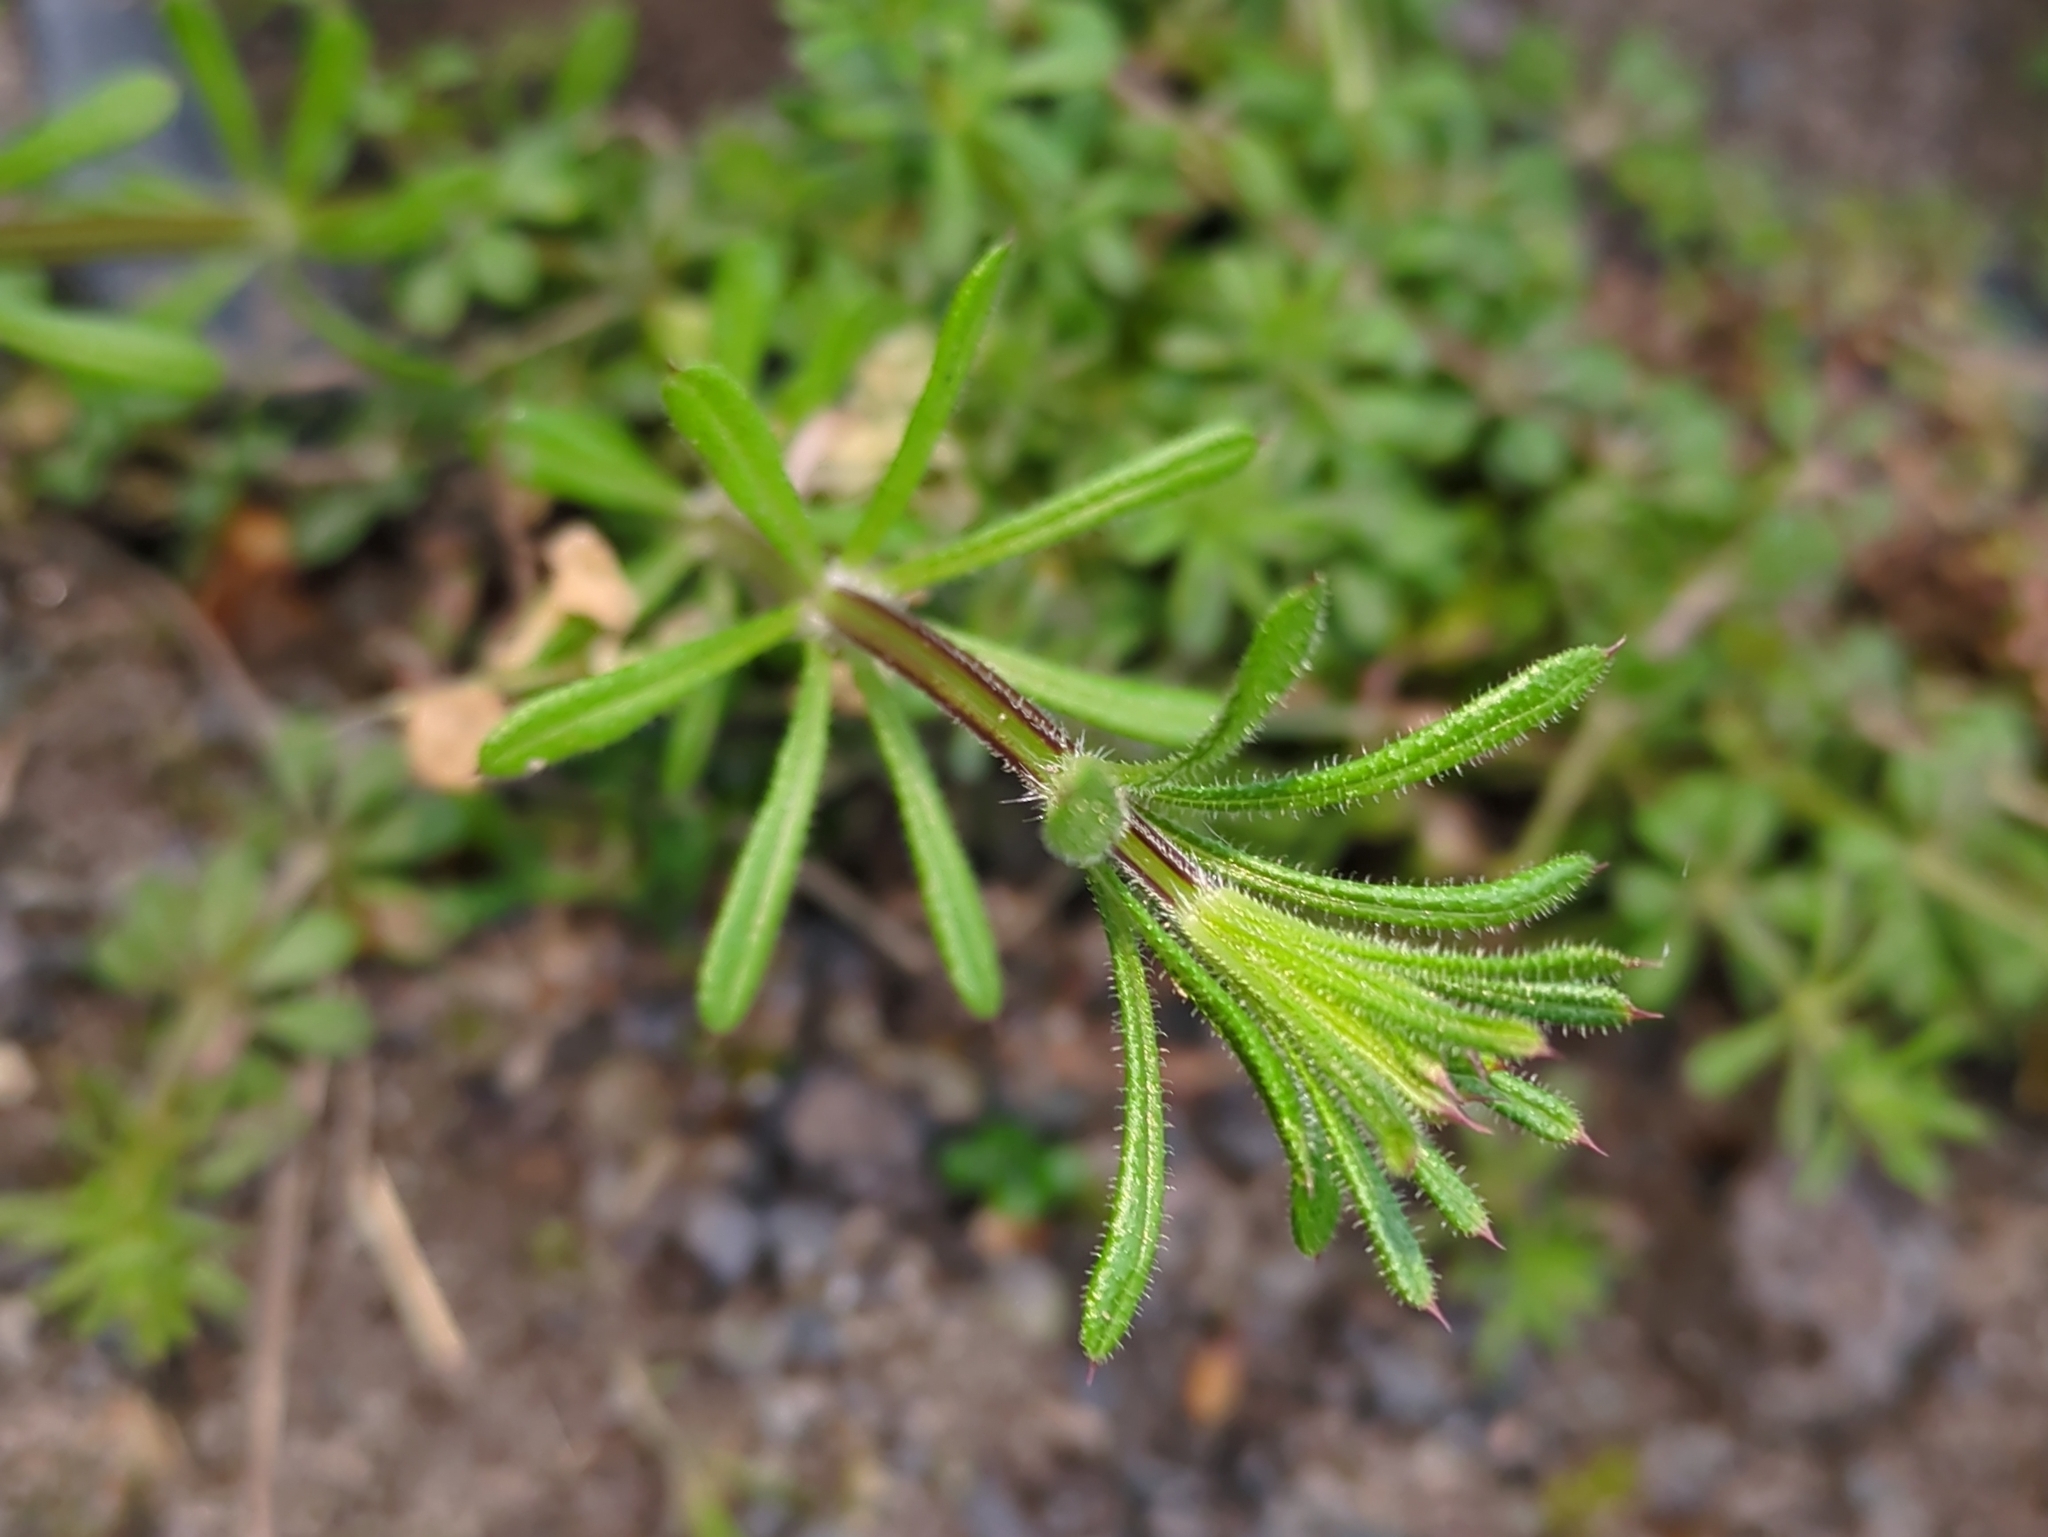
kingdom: Plantae
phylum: Tracheophyta
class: Magnoliopsida
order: Gentianales
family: Rubiaceae
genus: Galium
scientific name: Galium aparine
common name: Cleavers
